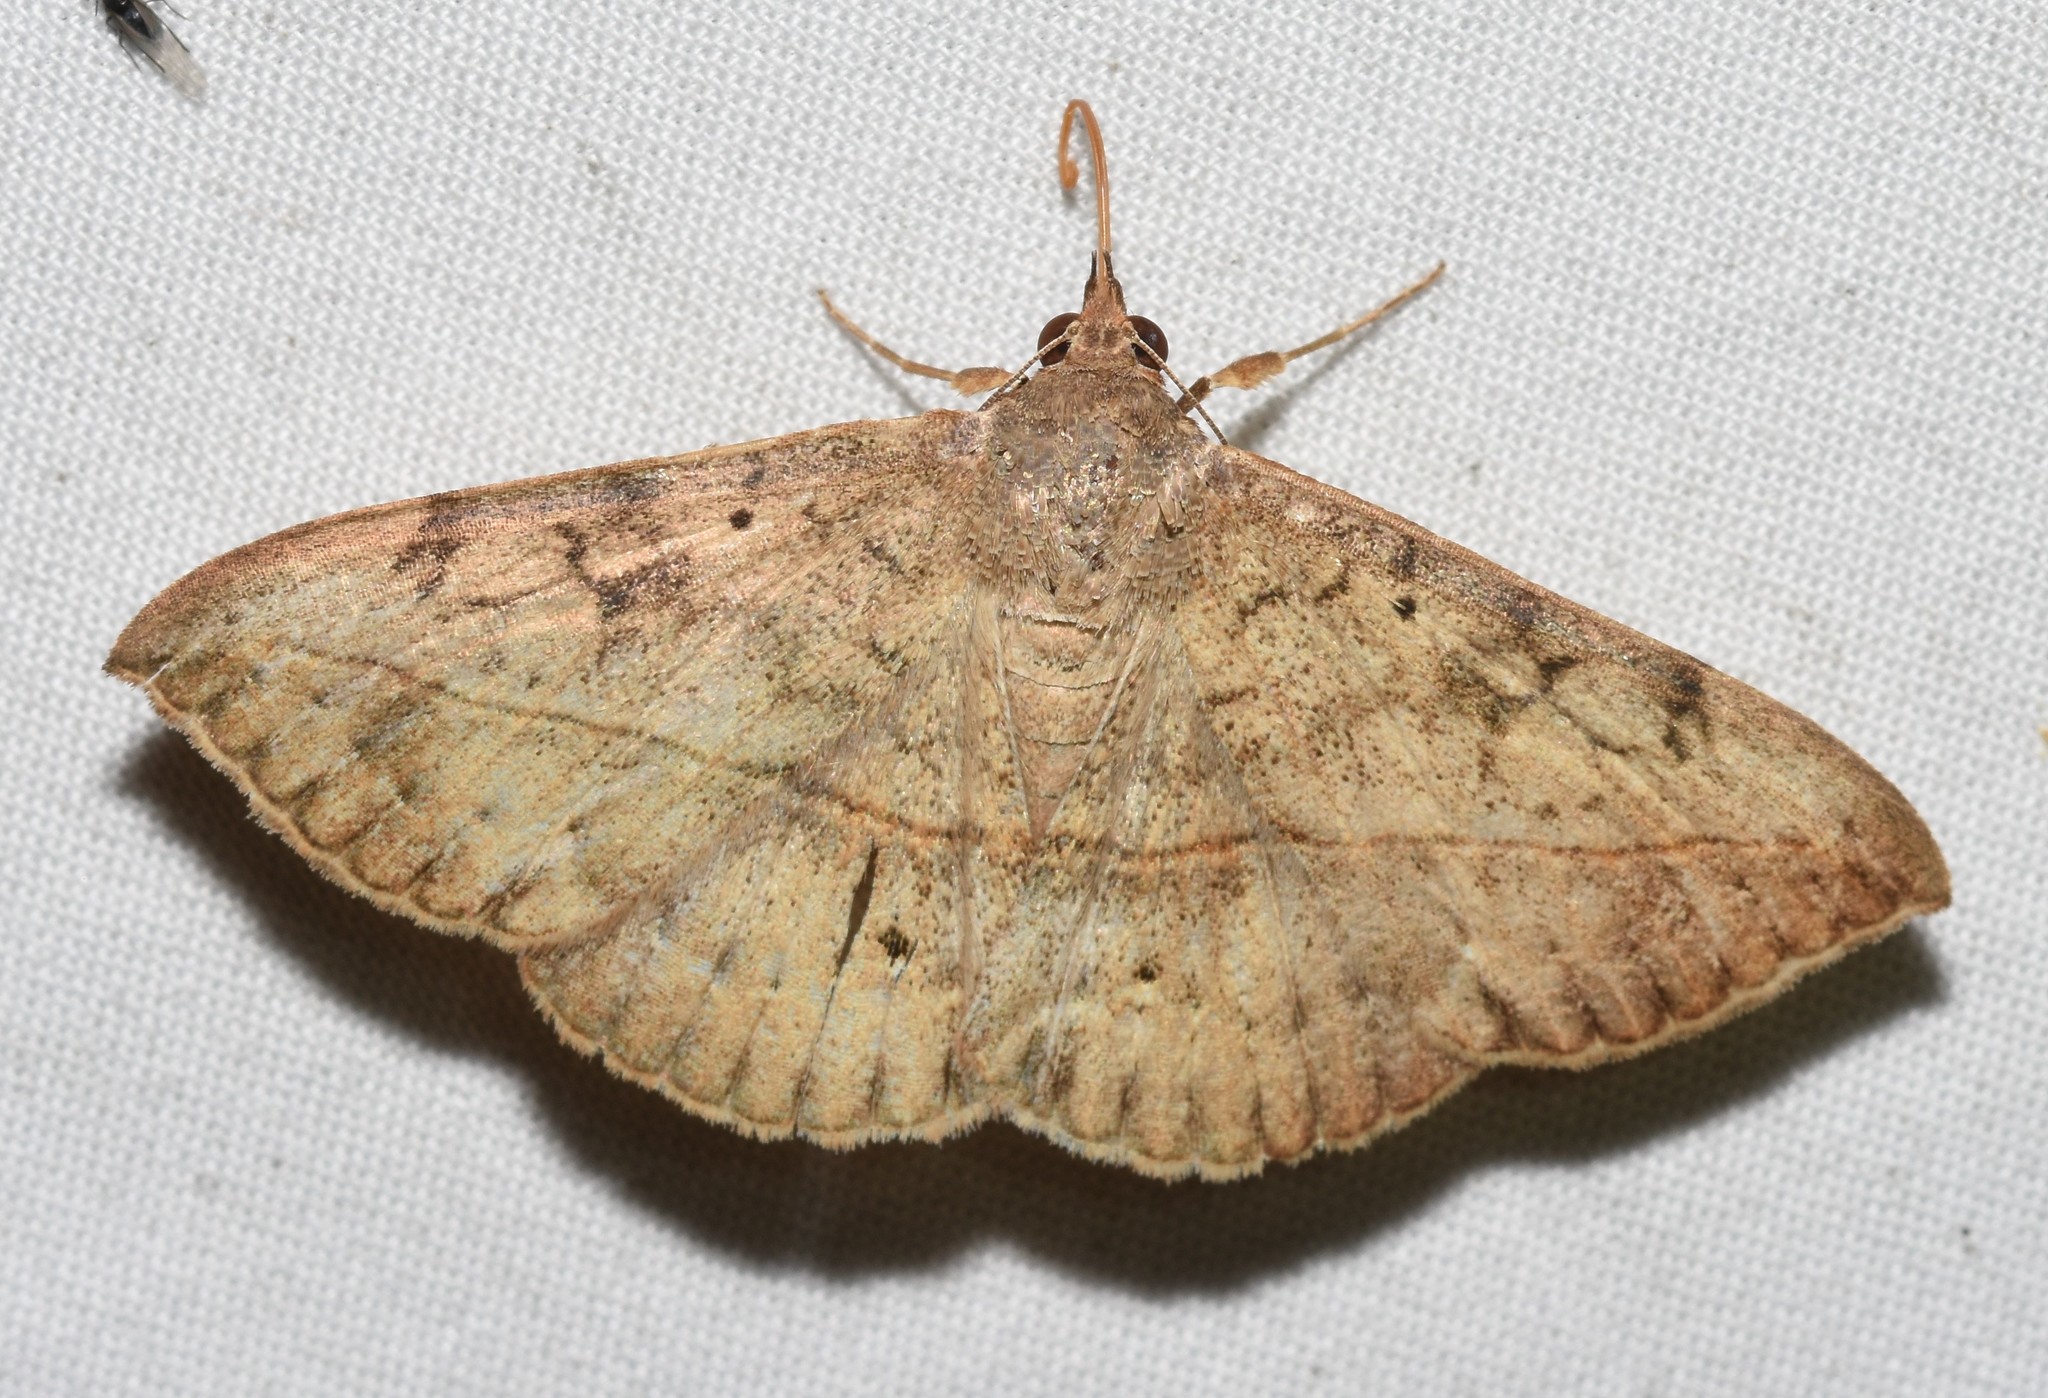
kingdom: Animalia
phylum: Arthropoda
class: Insecta
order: Lepidoptera
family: Erebidae
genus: Anticarsia
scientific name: Anticarsia gemmatalis
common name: Cutworm moth
